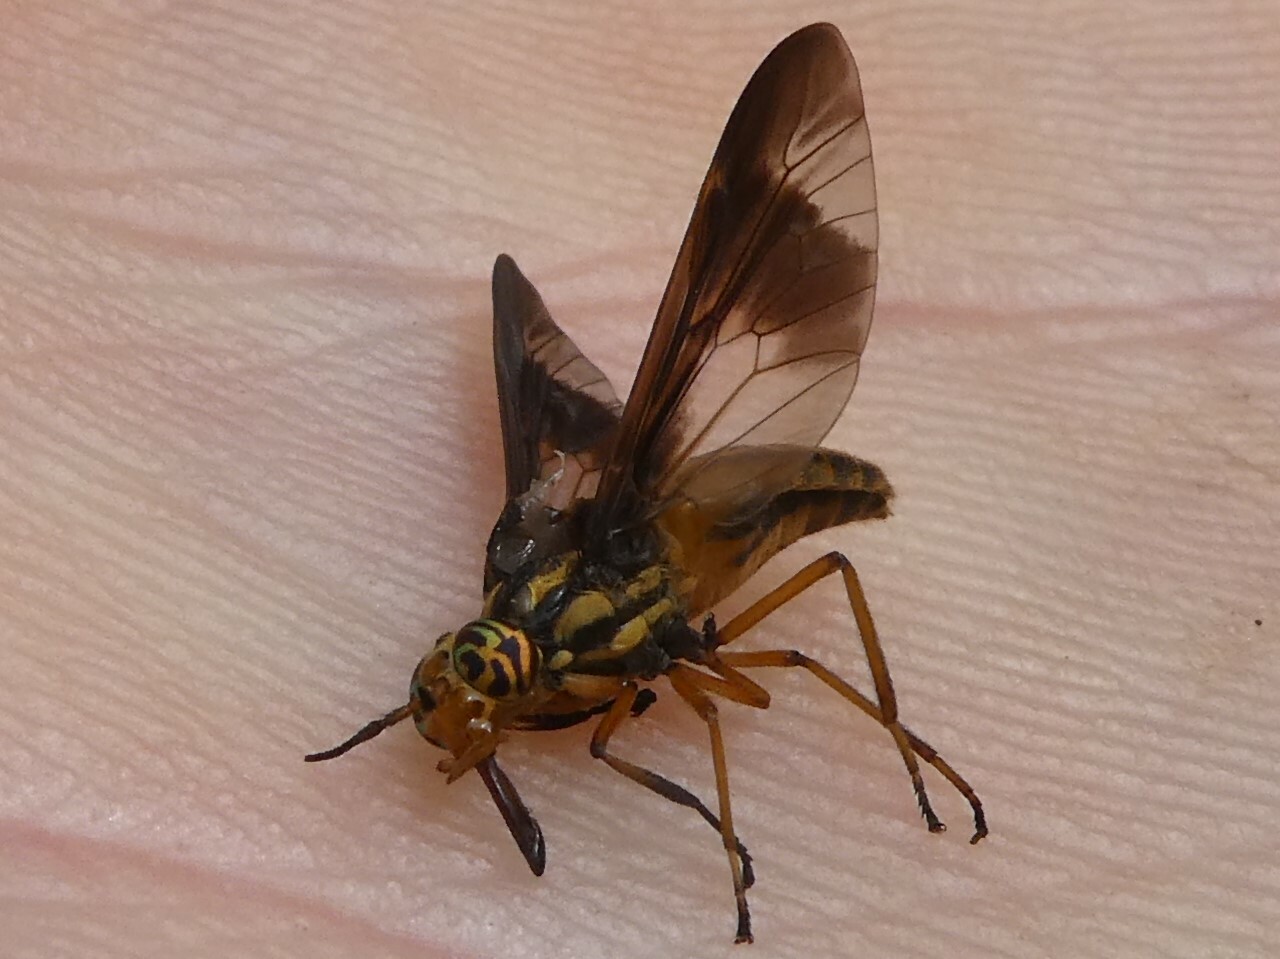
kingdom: Animalia
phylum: Arthropoda
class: Insecta
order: Diptera
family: Tabanidae
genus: Chrysops
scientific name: Chrysops vittatus
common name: Striped deer fly
